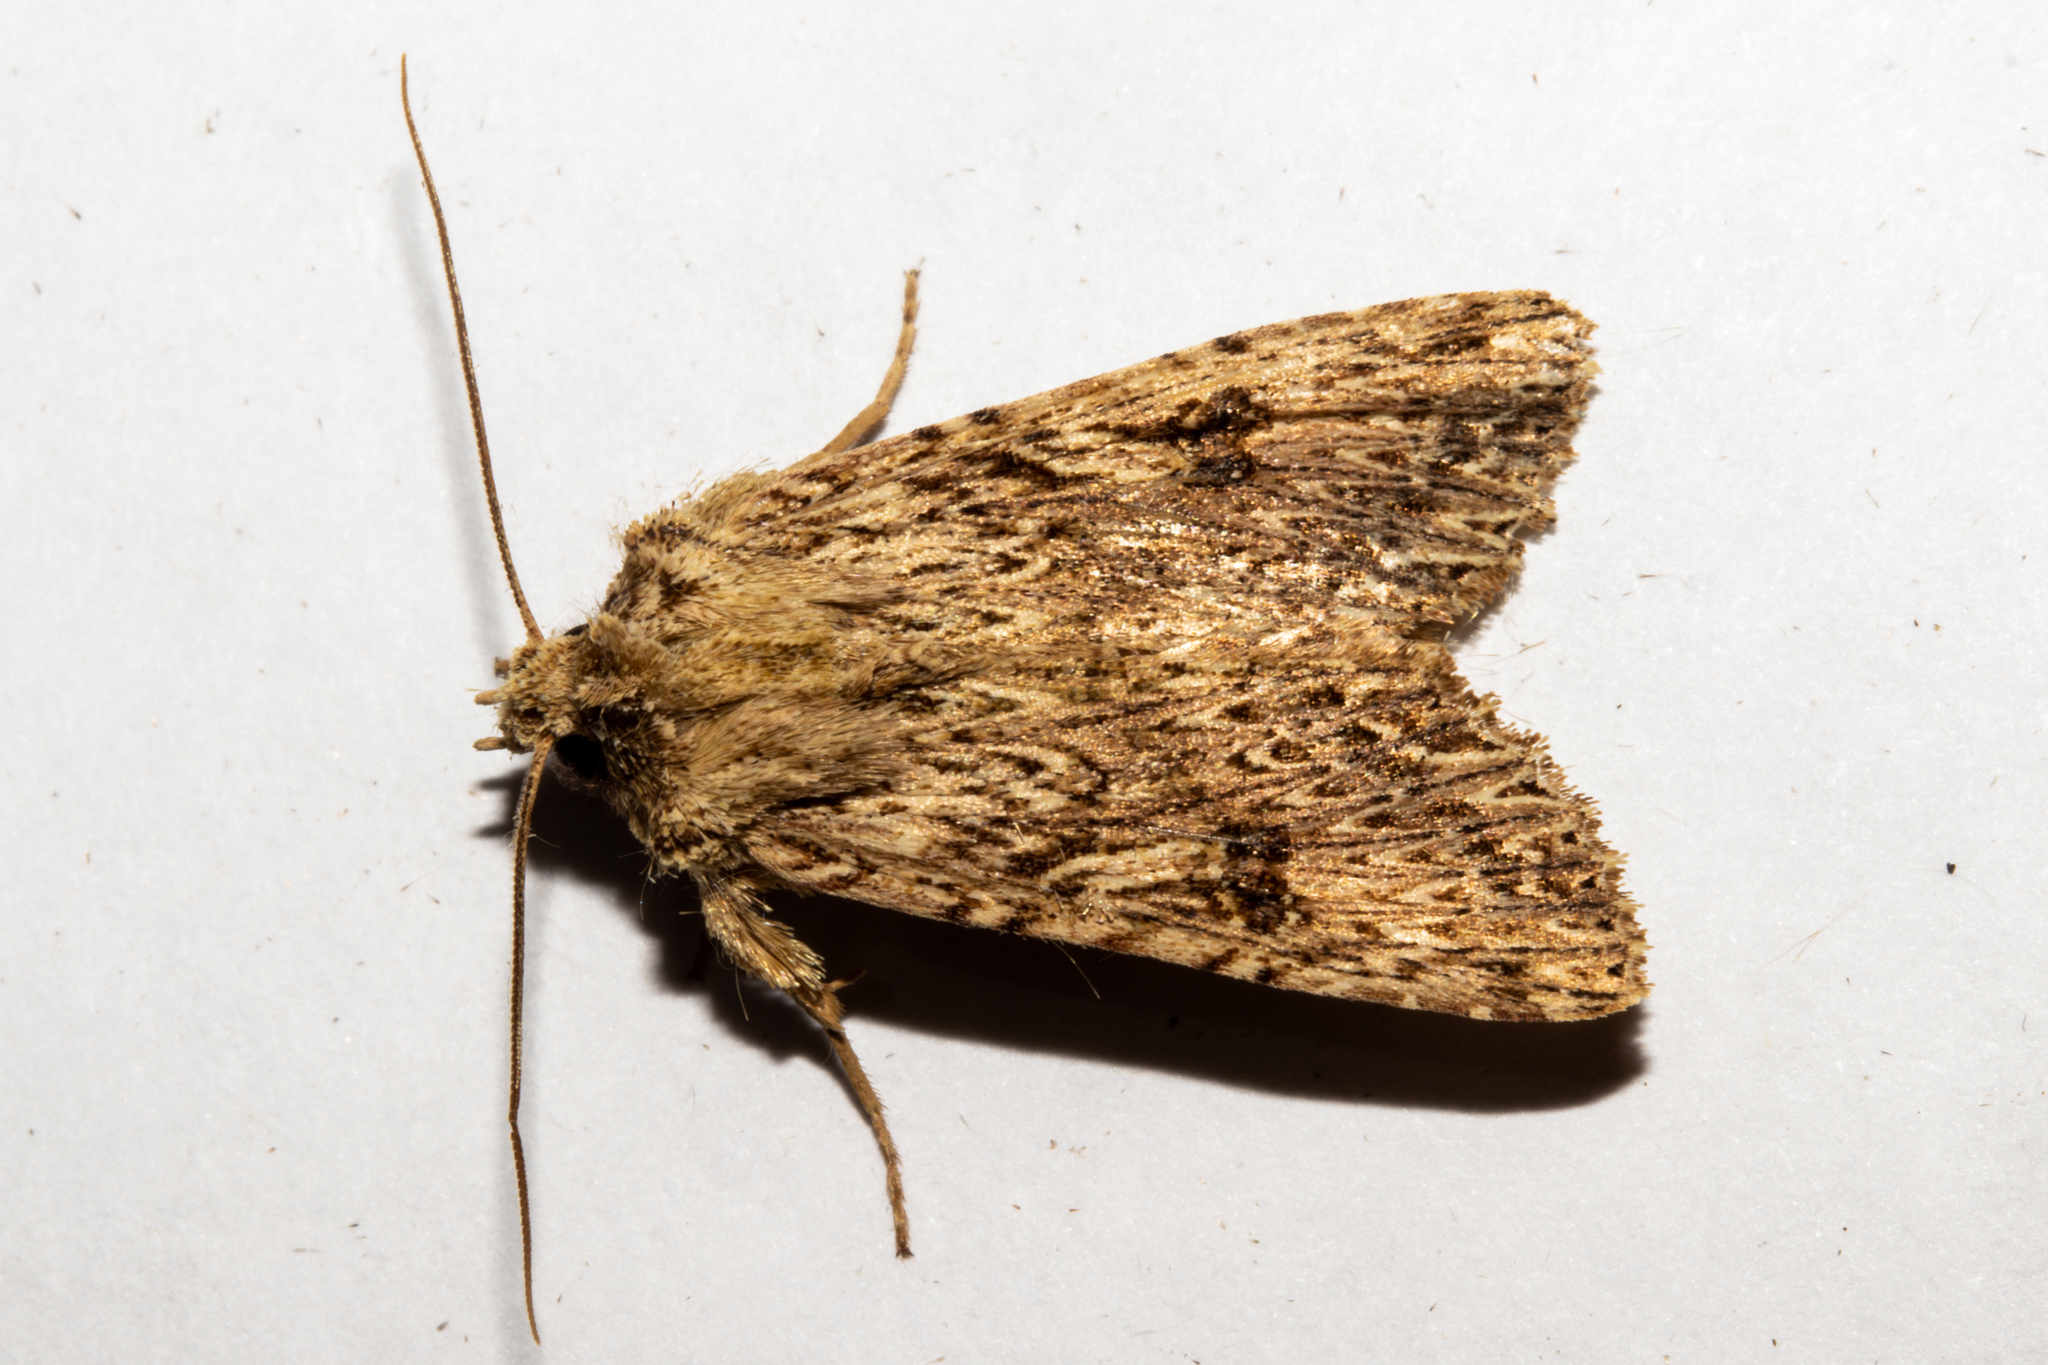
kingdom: Animalia
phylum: Arthropoda
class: Insecta
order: Lepidoptera
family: Noctuidae
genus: Meterana
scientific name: Meterana pansicolor
